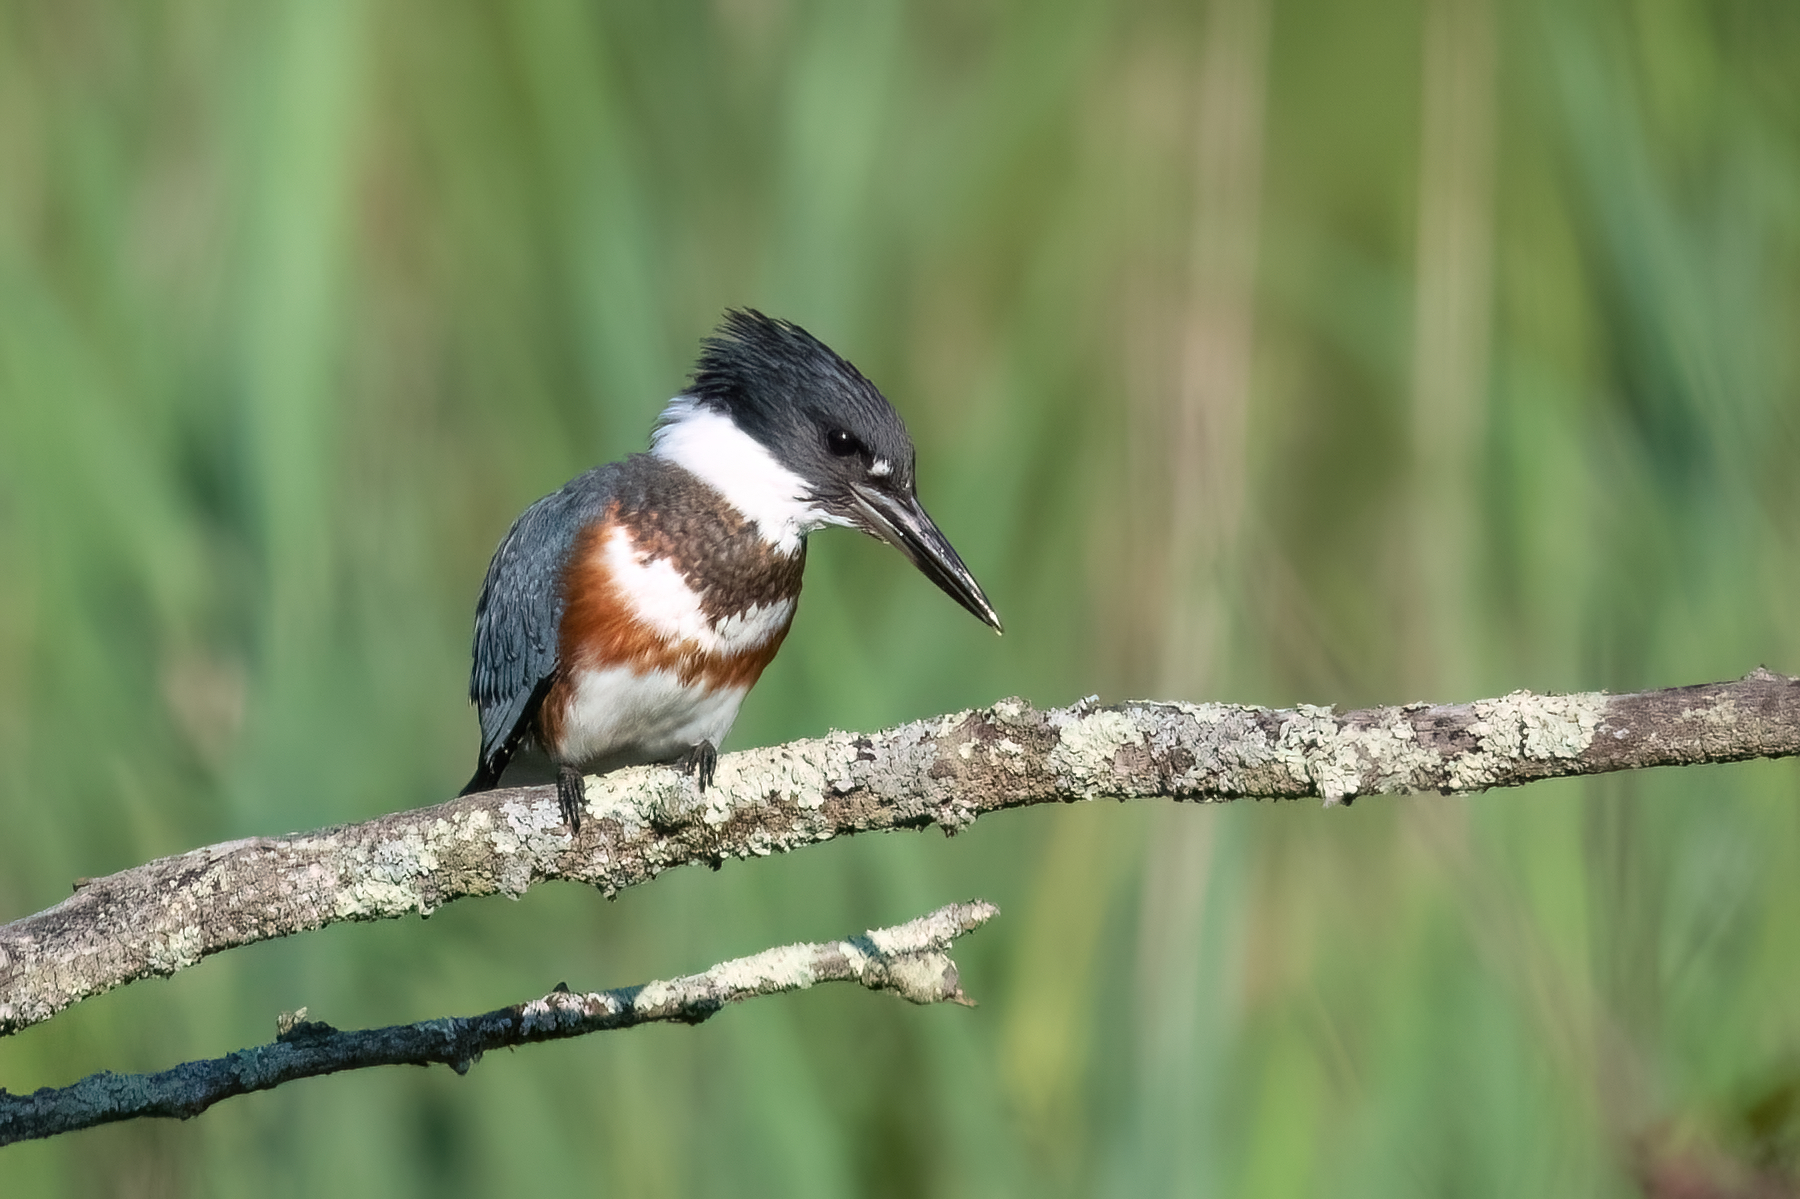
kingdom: Animalia
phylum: Chordata
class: Aves
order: Coraciiformes
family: Alcedinidae
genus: Megaceryle
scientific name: Megaceryle alcyon
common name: Belted kingfisher
